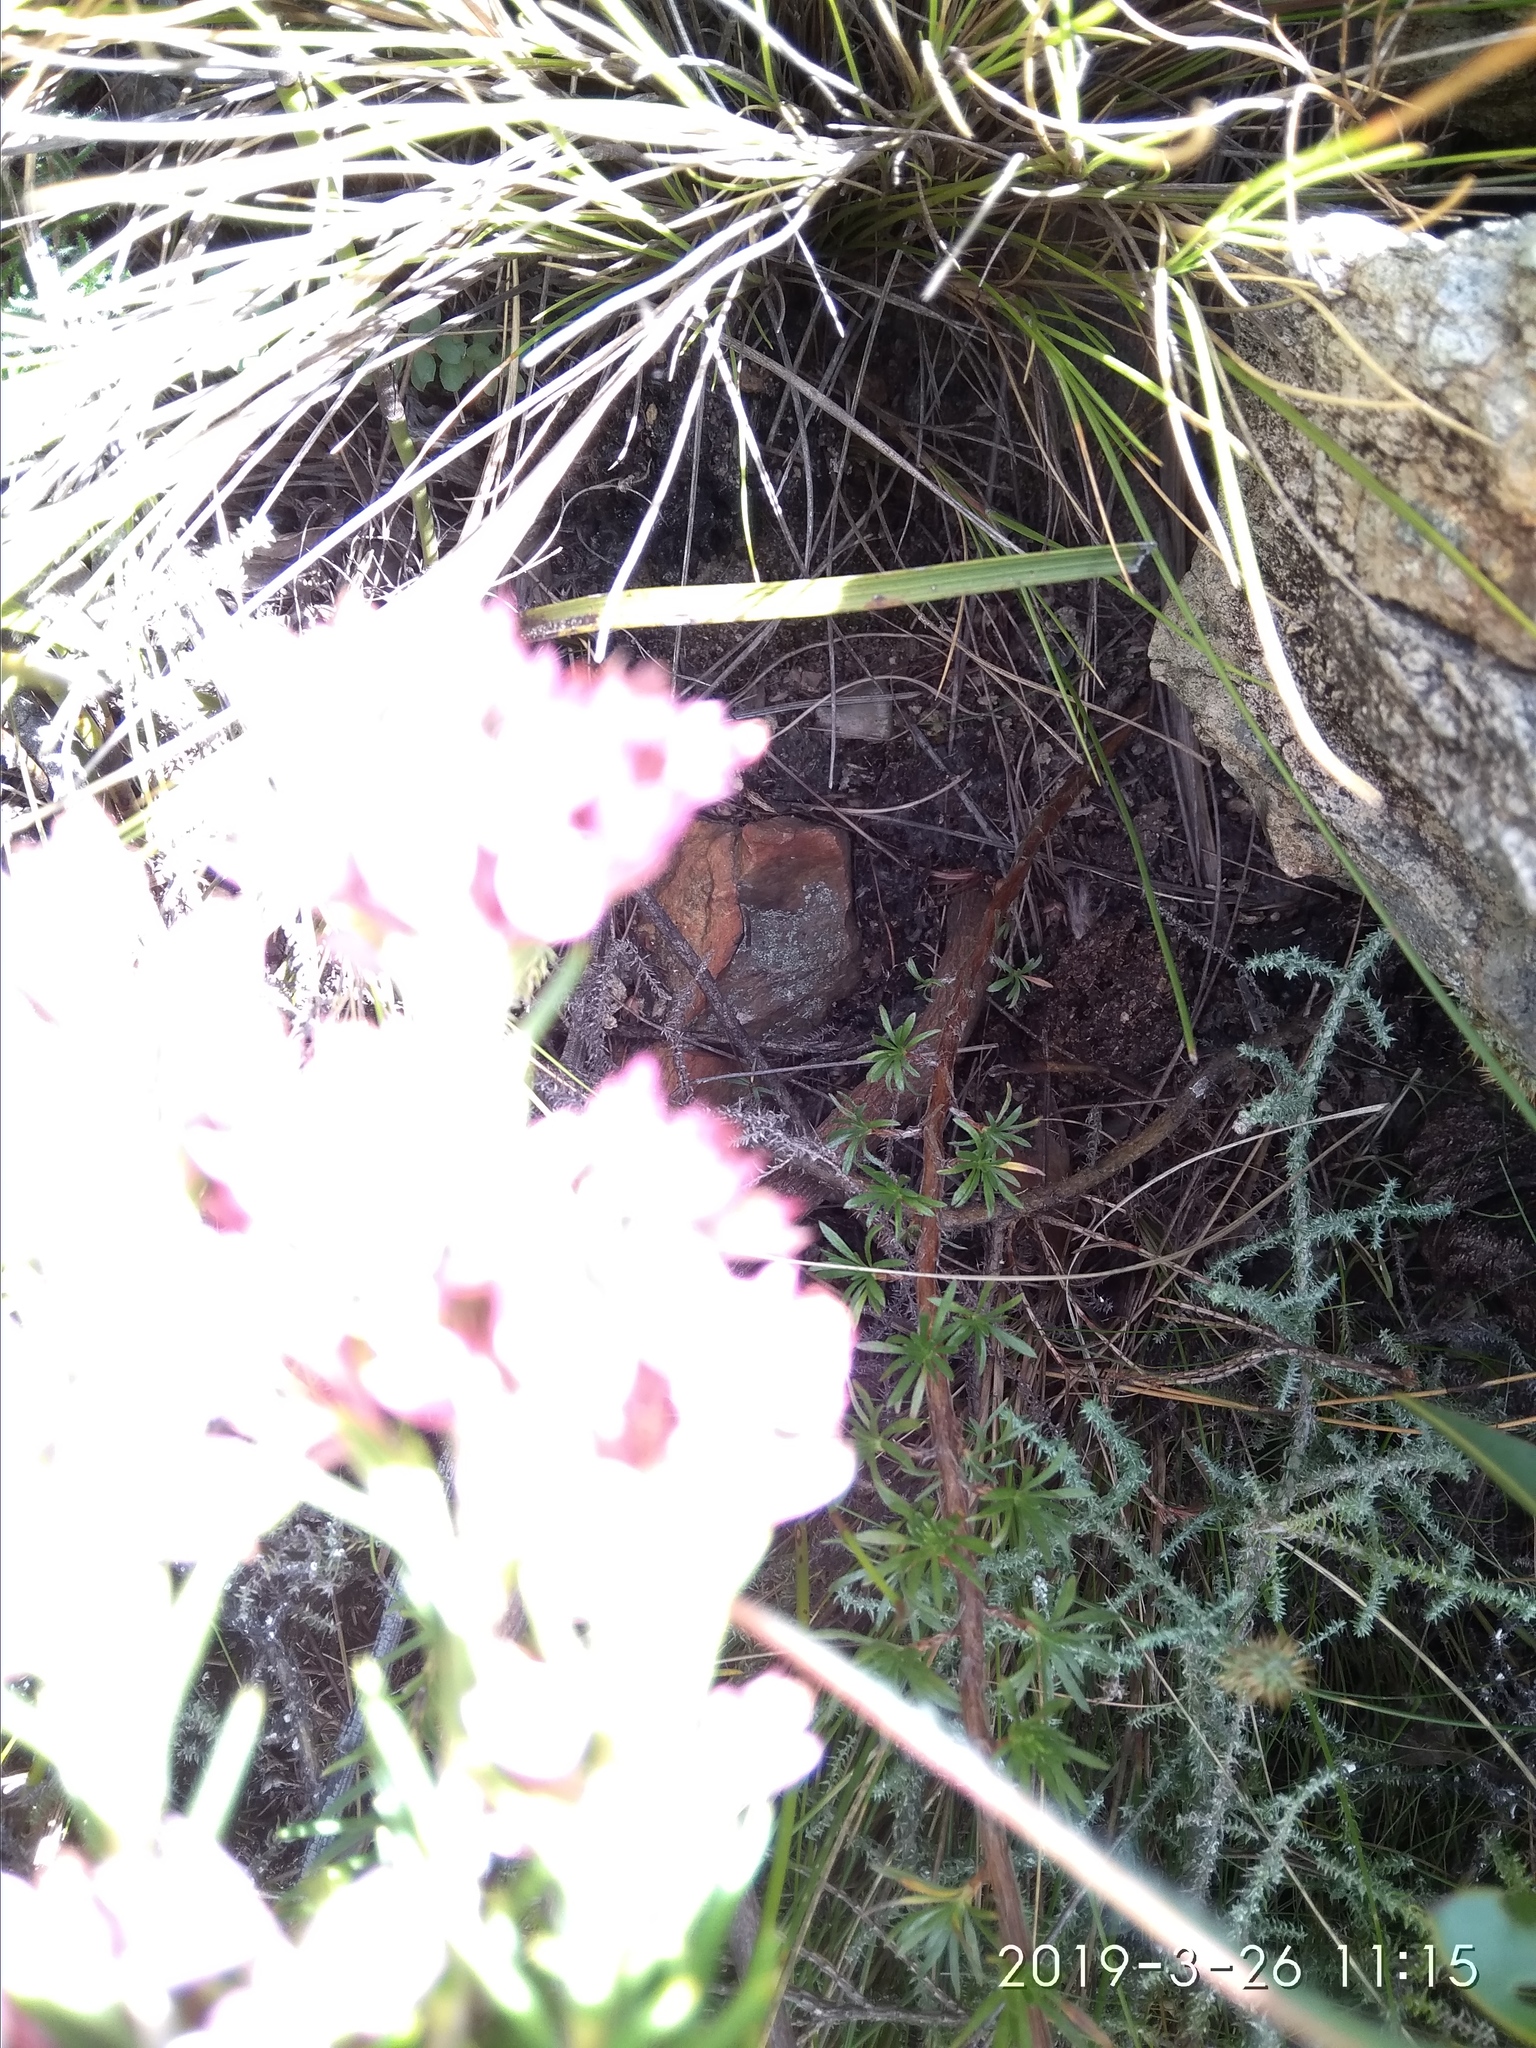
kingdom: Plantae
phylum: Tracheophyta
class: Magnoliopsida
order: Ericales
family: Ericaceae
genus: Erica
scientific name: Erica taxifolia
